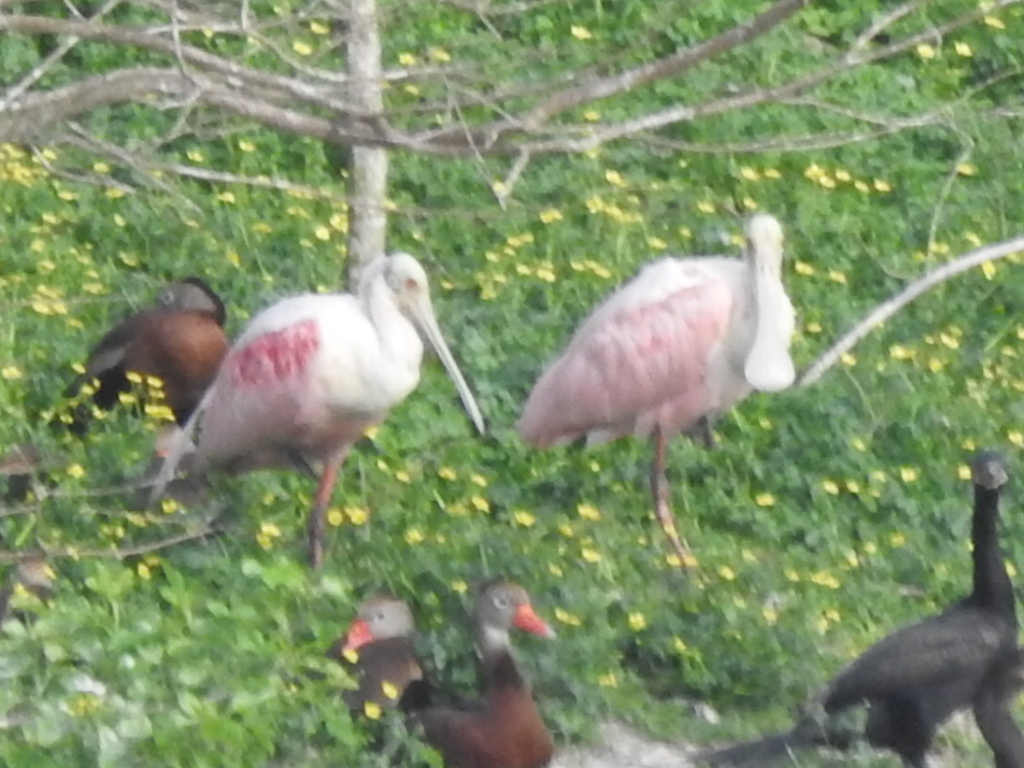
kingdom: Animalia
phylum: Chordata
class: Aves
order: Pelecaniformes
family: Threskiornithidae
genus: Platalea
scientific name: Platalea ajaja
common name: Roseate spoonbill
